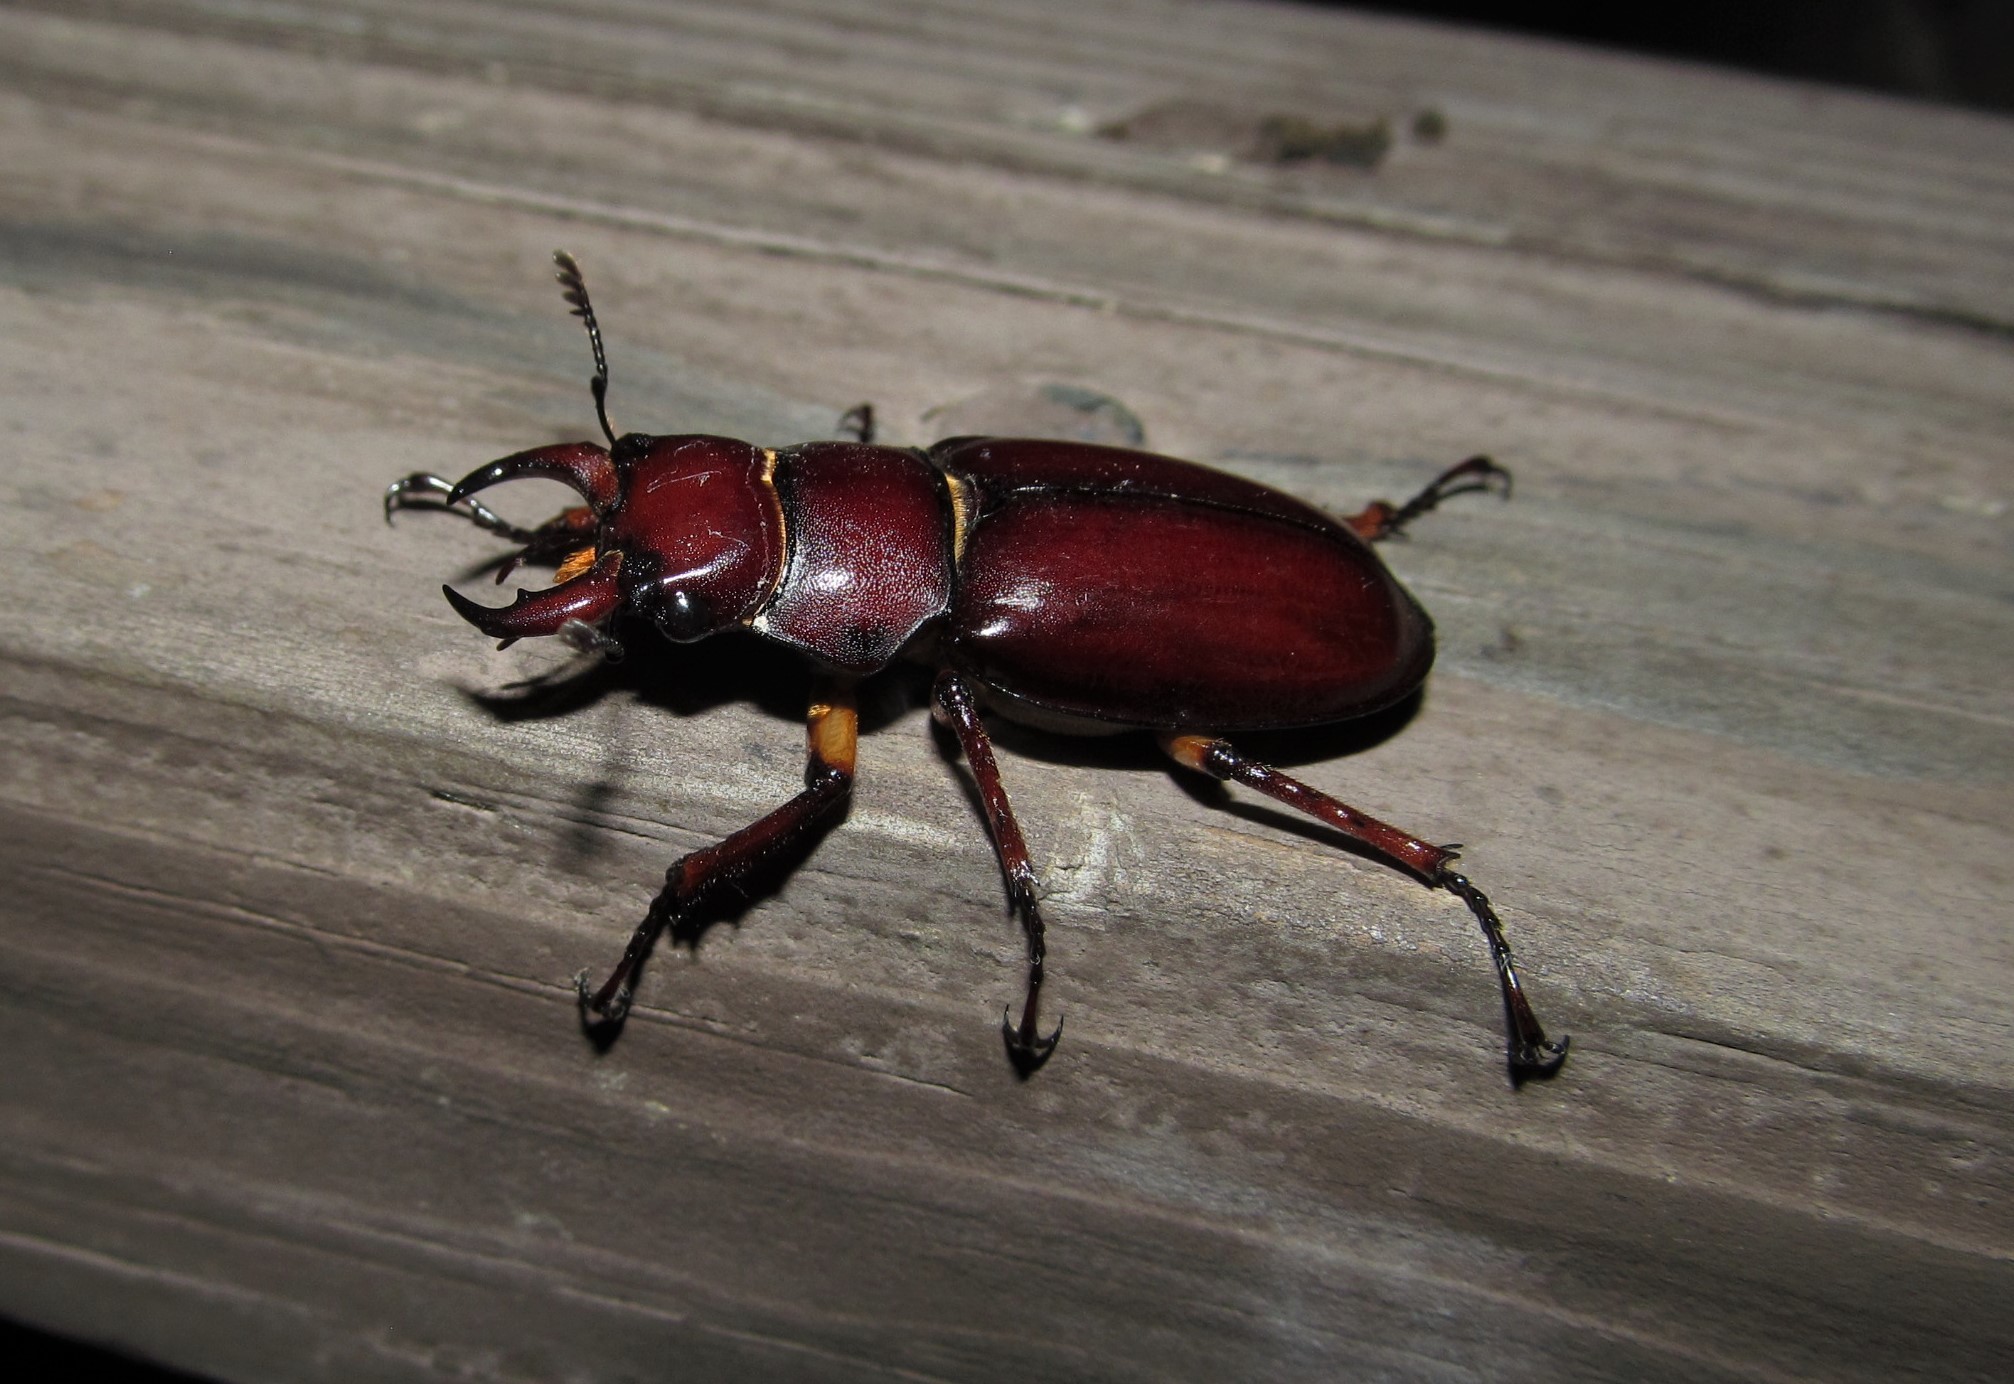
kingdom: Animalia
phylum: Arthropoda
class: Insecta
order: Coleoptera
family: Lucanidae
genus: Lucanus
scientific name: Lucanus capreolus
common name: Stag beetle
